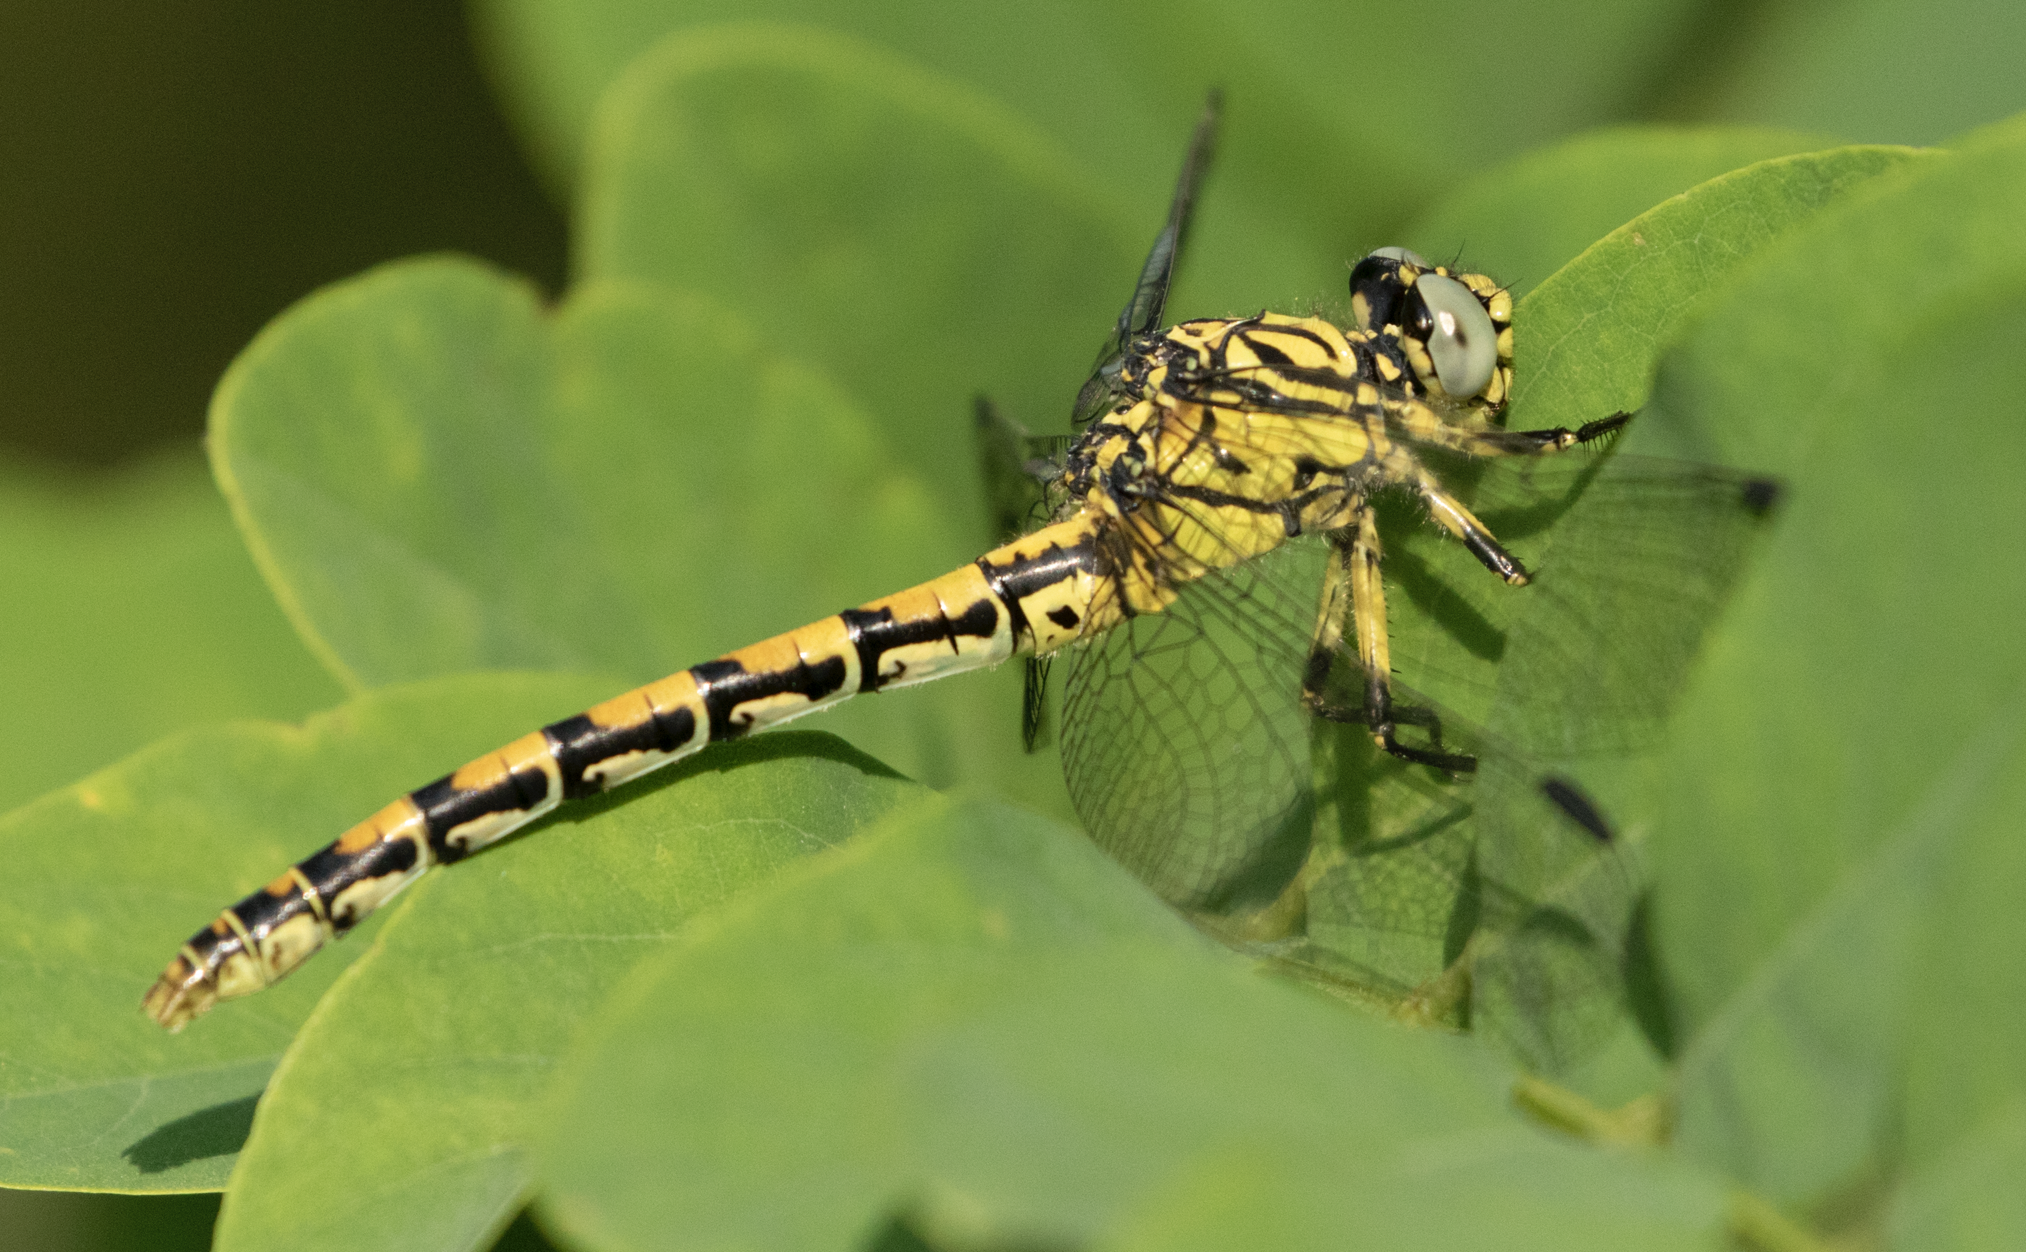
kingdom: Animalia
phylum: Arthropoda
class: Insecta
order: Odonata
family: Gomphidae
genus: Onychogomphus
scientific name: Onychogomphus forcipatus
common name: Small pincertail
